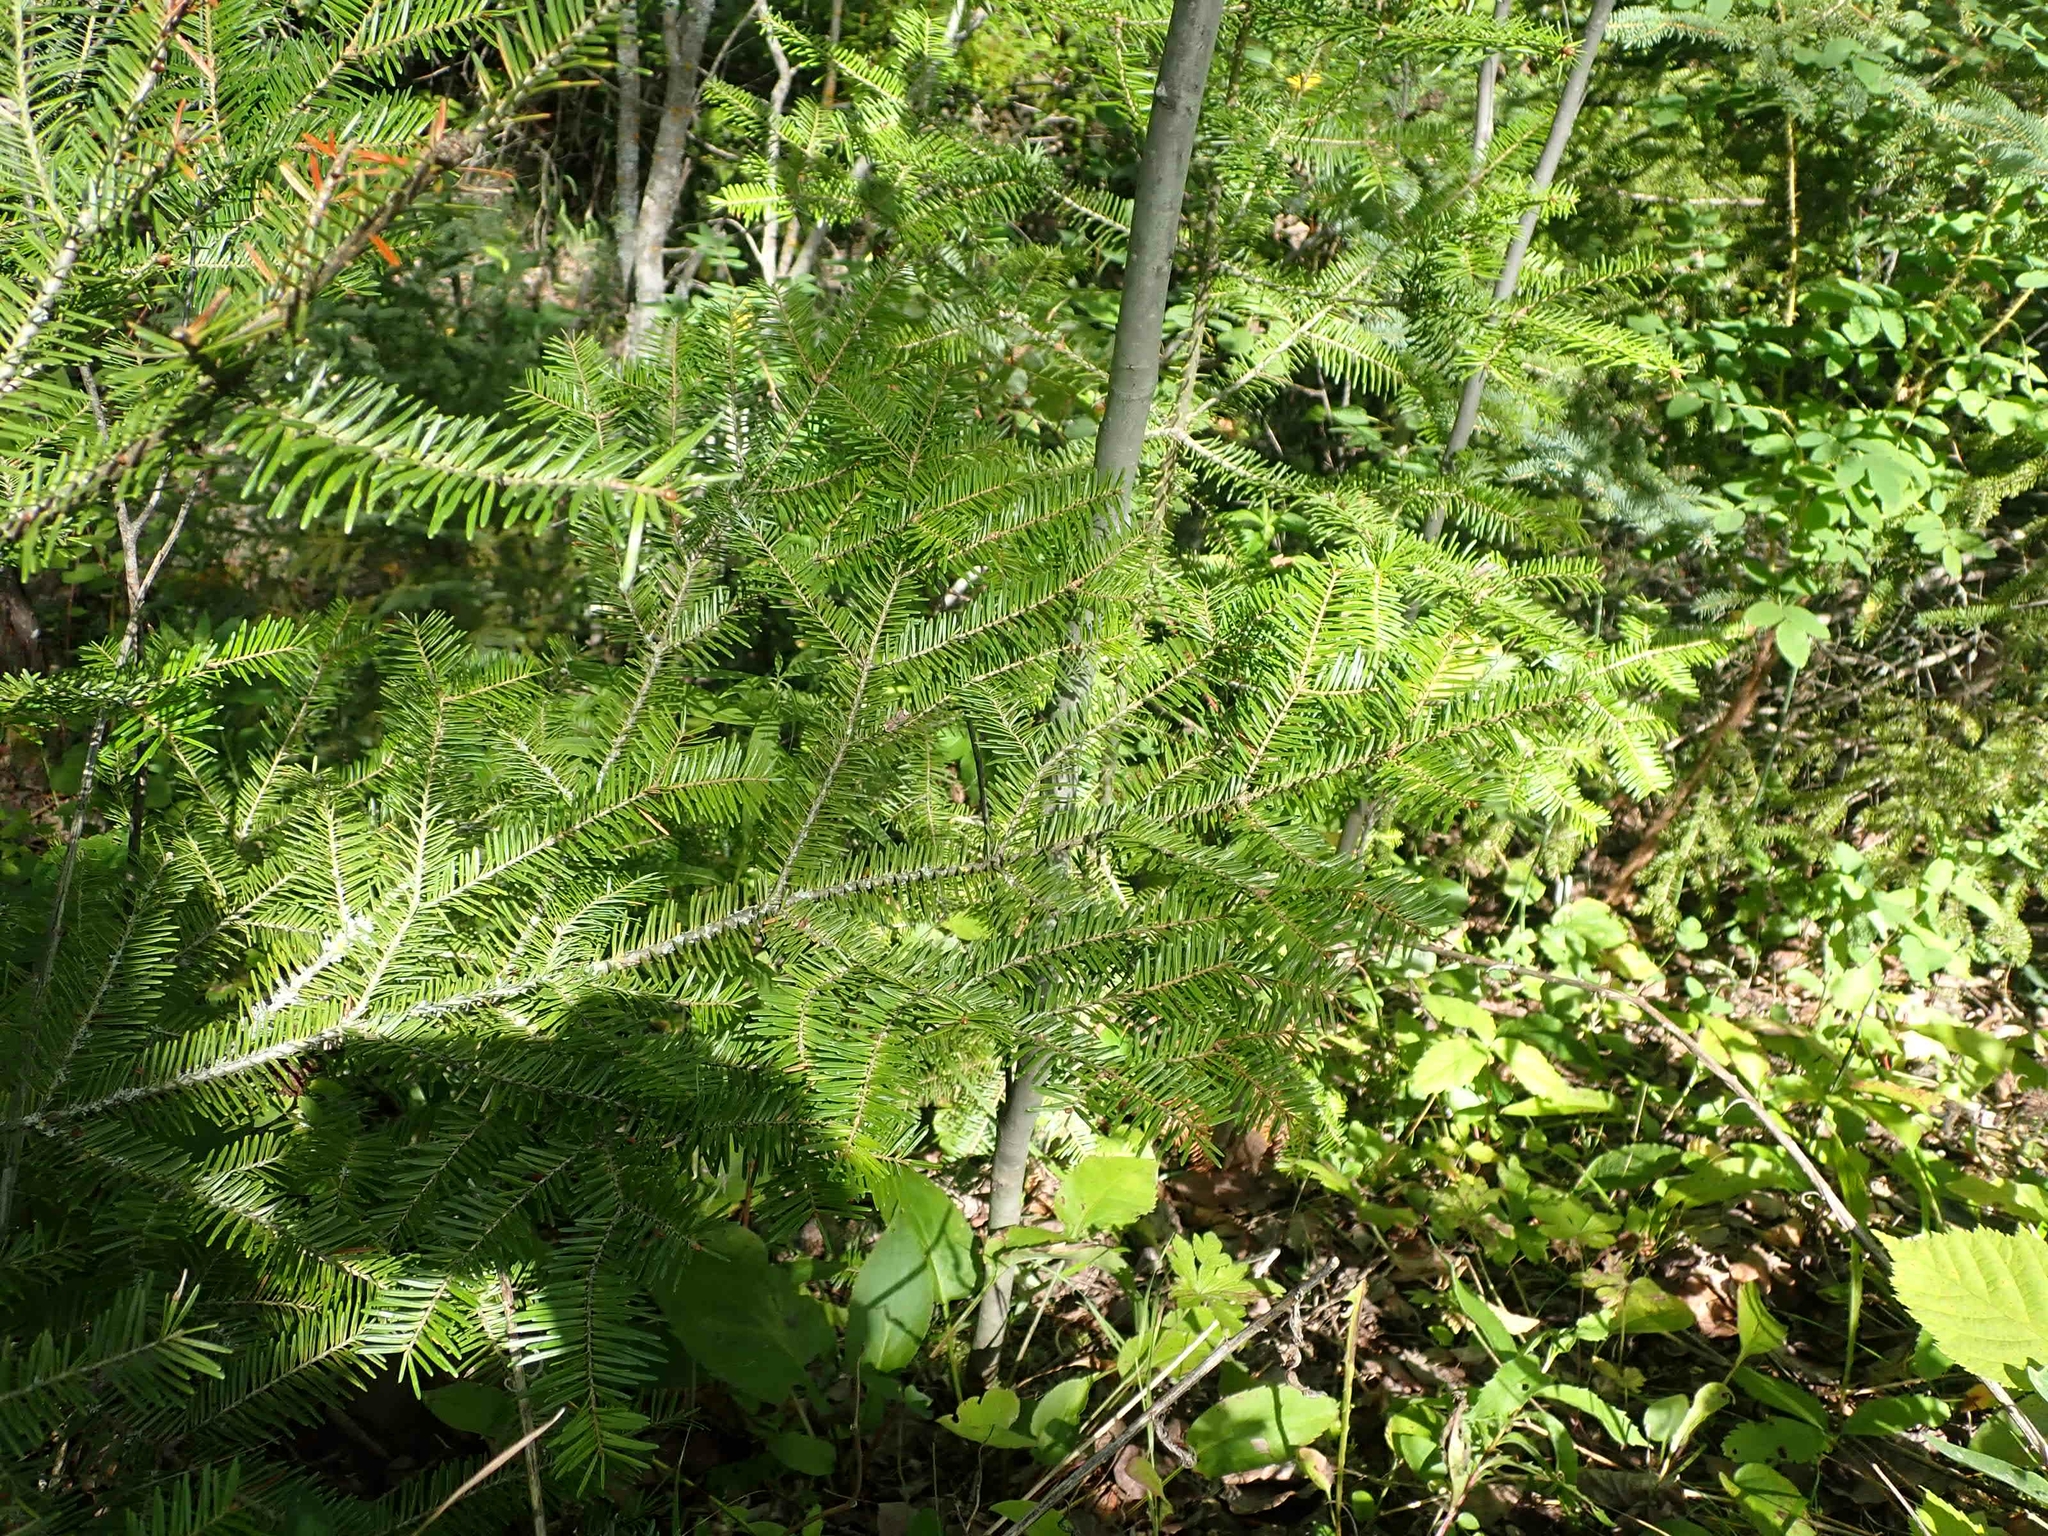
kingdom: Plantae
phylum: Tracheophyta
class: Pinopsida
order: Pinales
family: Pinaceae
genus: Abies
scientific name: Abies balsamea
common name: Balsam fir
